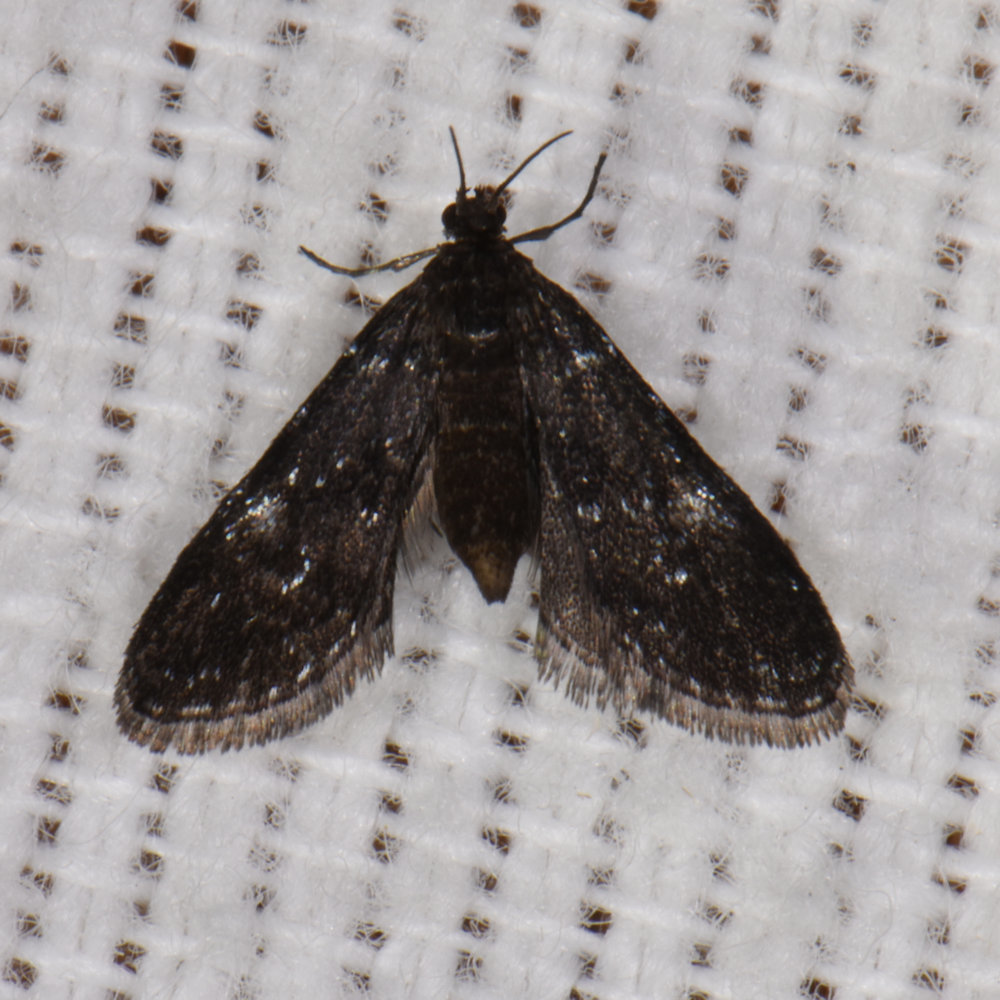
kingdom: Animalia
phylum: Arthropoda
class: Insecta
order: Lepidoptera
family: Crambidae
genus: Elophila
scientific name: Elophila tinealis
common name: Black duckweed moth
